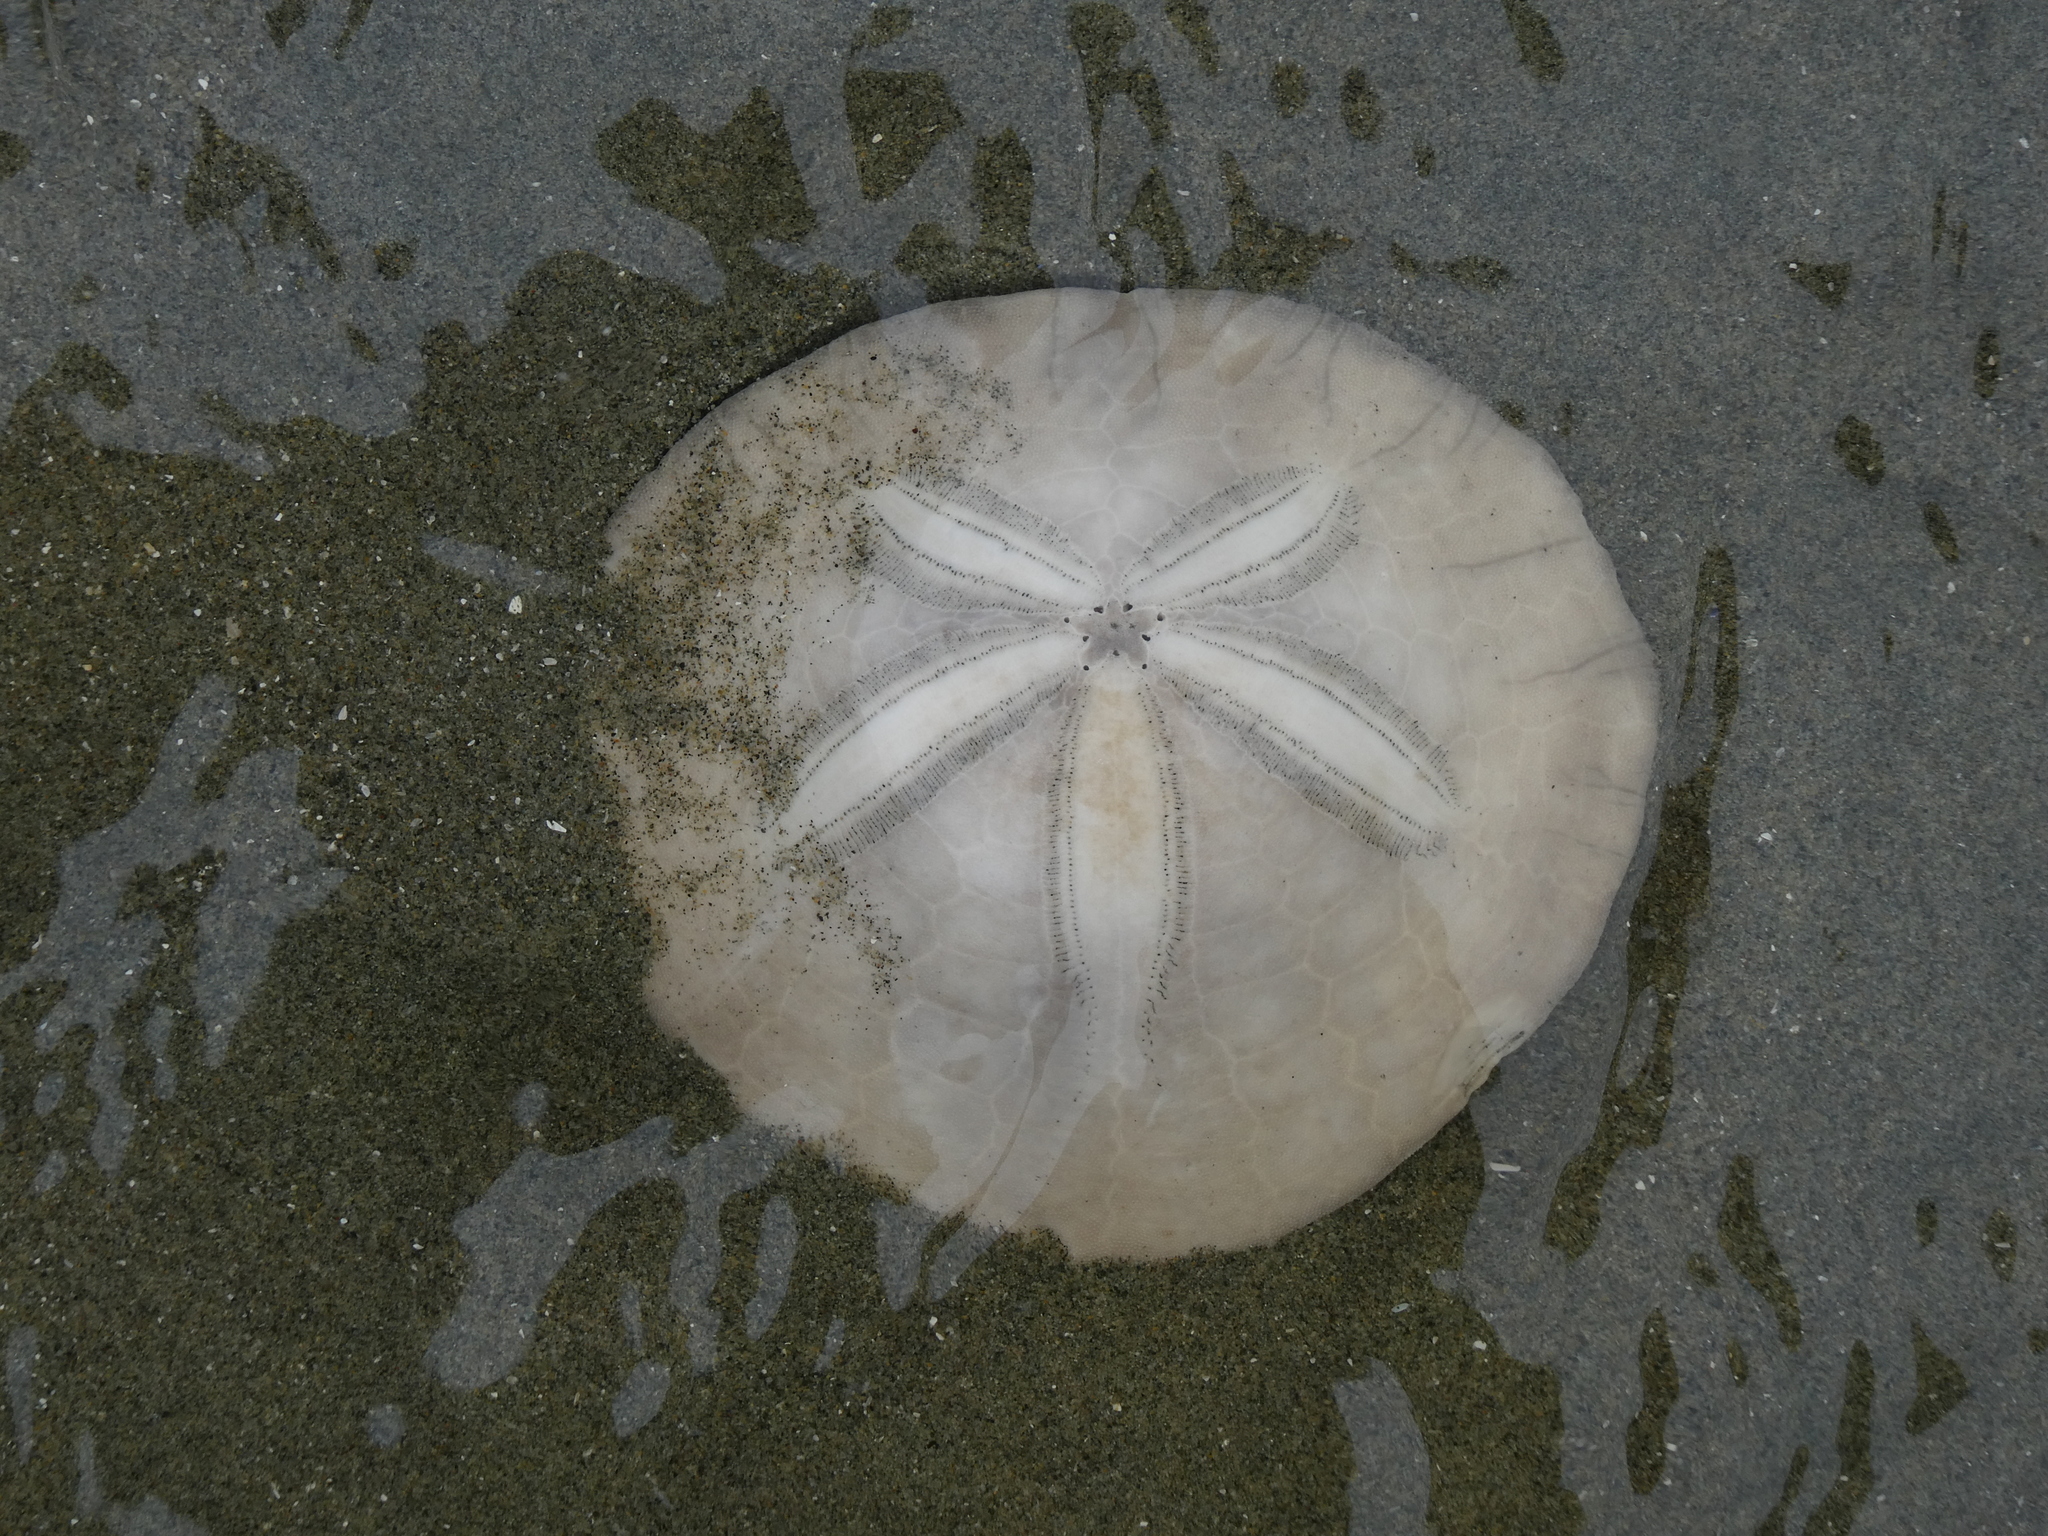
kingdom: Animalia
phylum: Echinodermata
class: Echinoidea
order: Echinolampadacea
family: Dendrasteridae
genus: Dendraster
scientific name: Dendraster excentricus
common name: Eccentric sand dollar sea urchin
